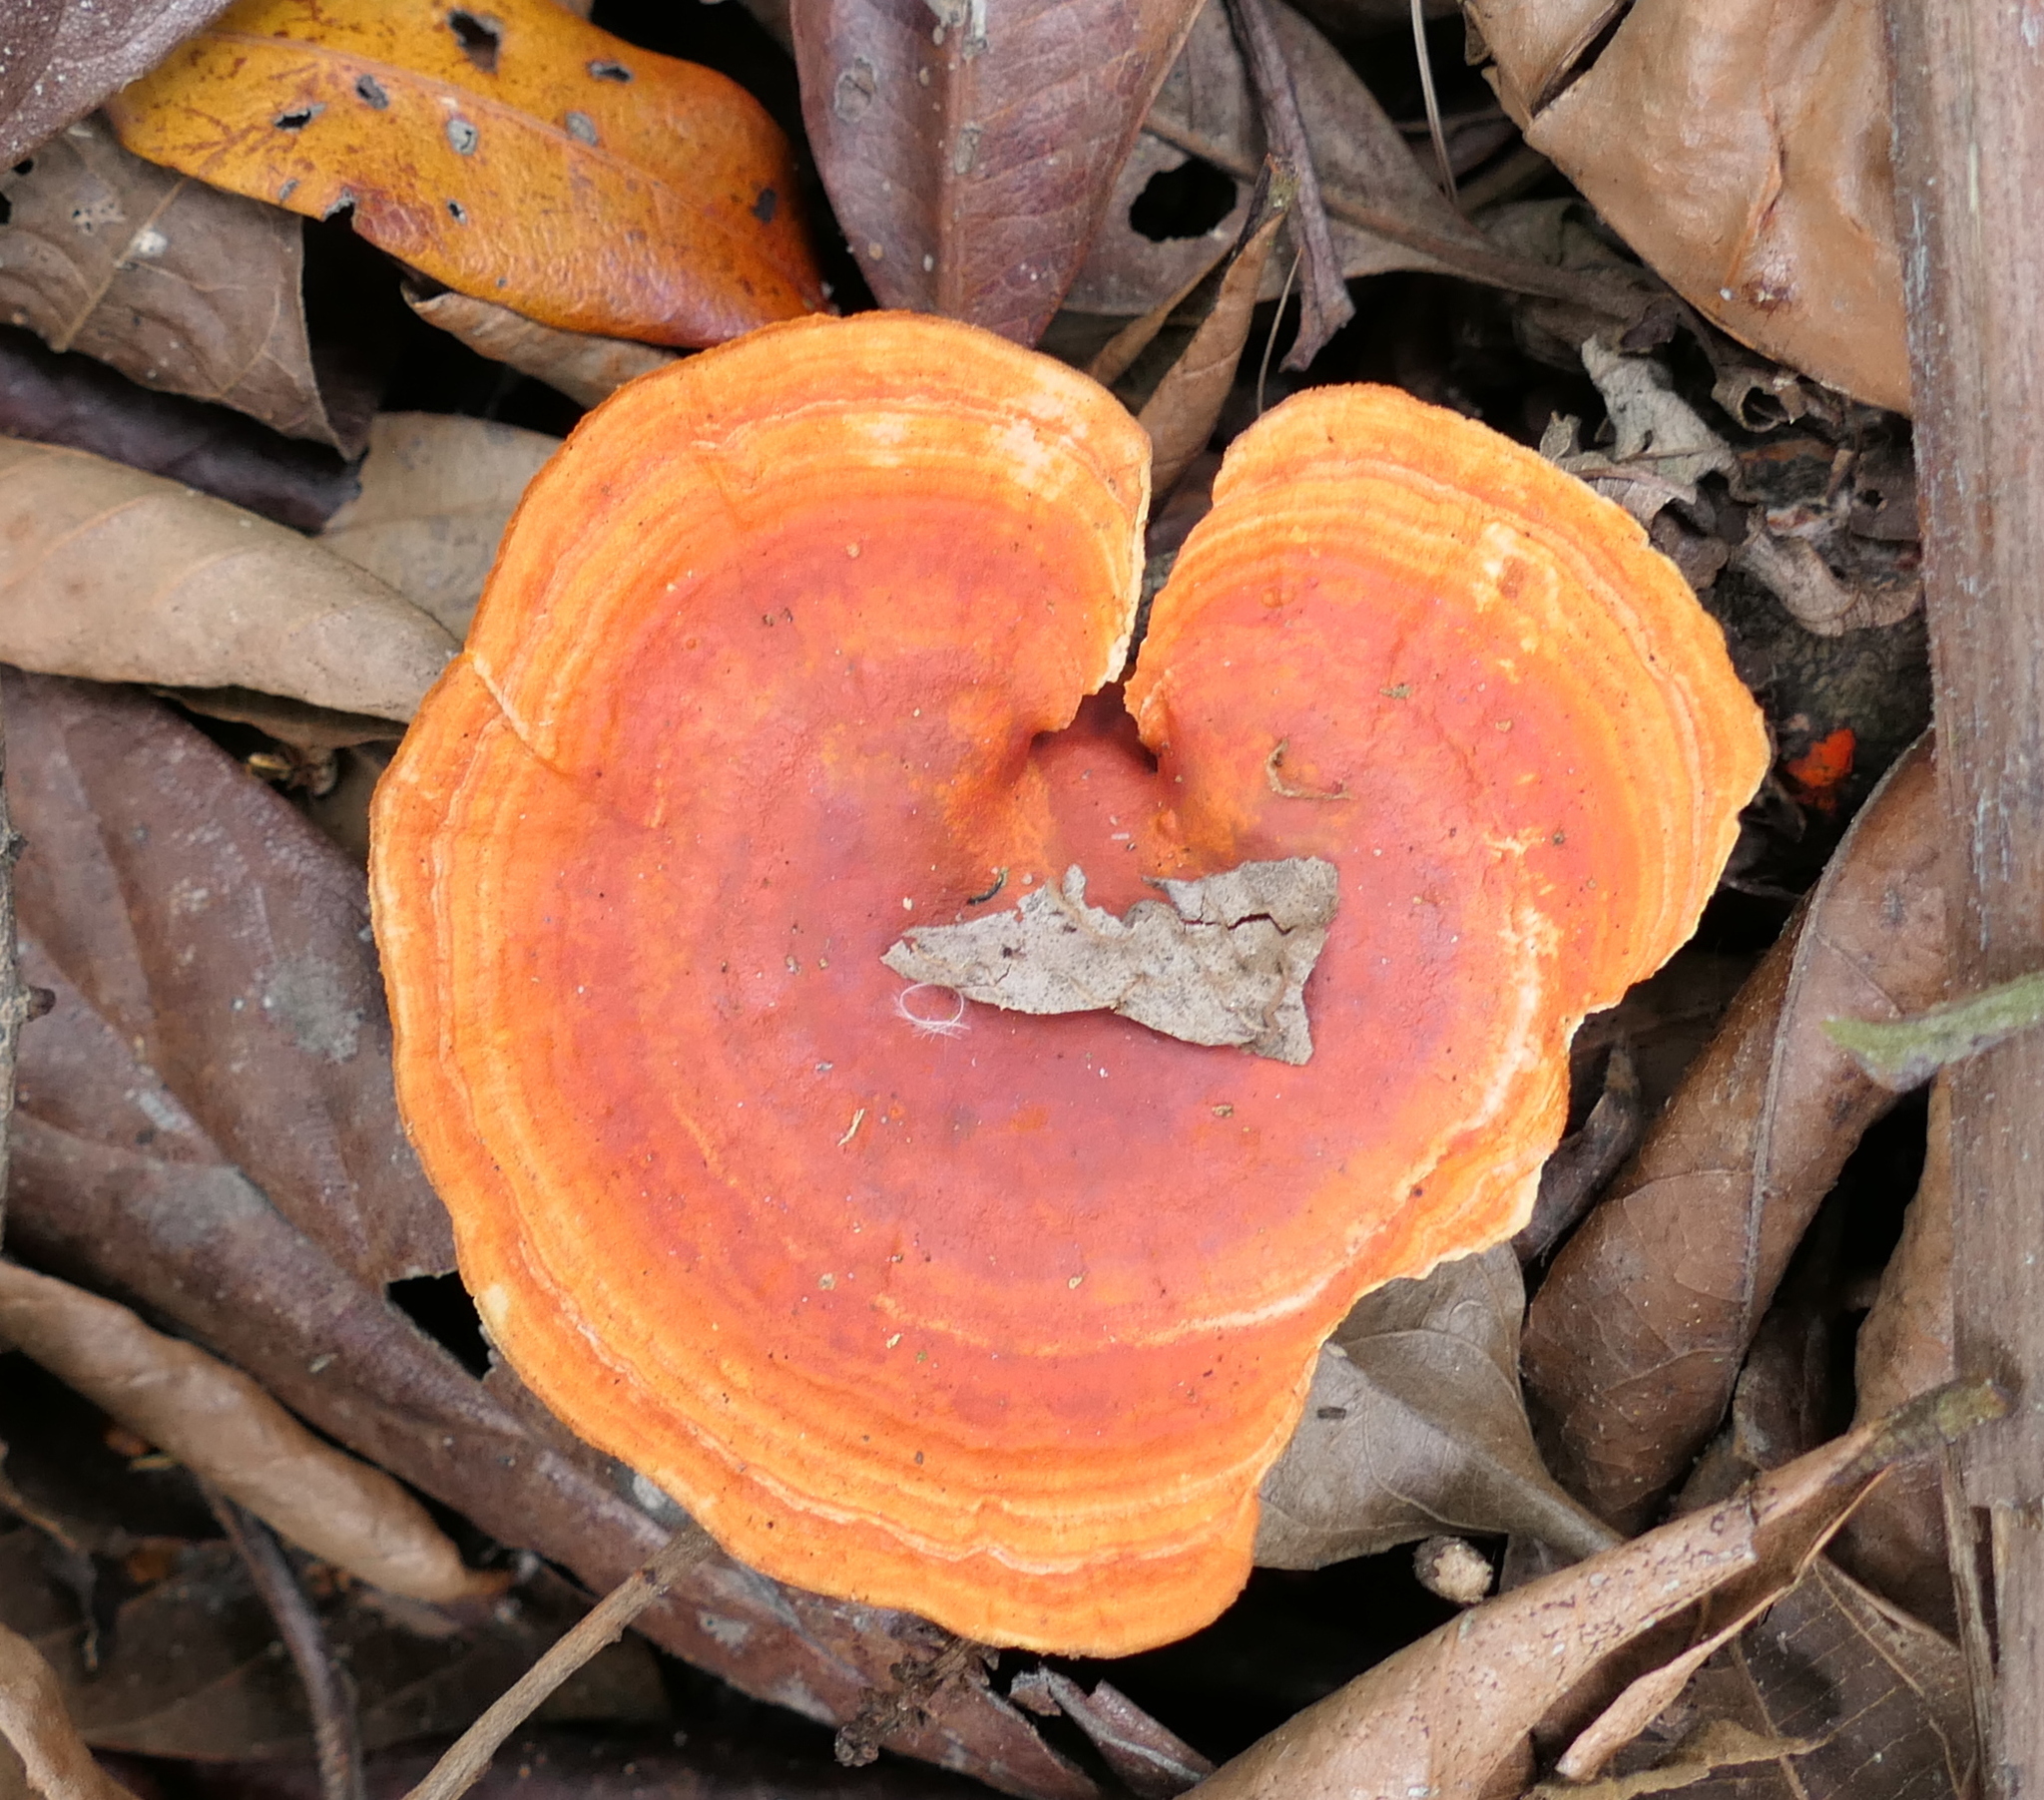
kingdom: Fungi
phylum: Basidiomycota
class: Agaricomycetes
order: Polyporales
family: Polyporaceae
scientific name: Polyporaceae
